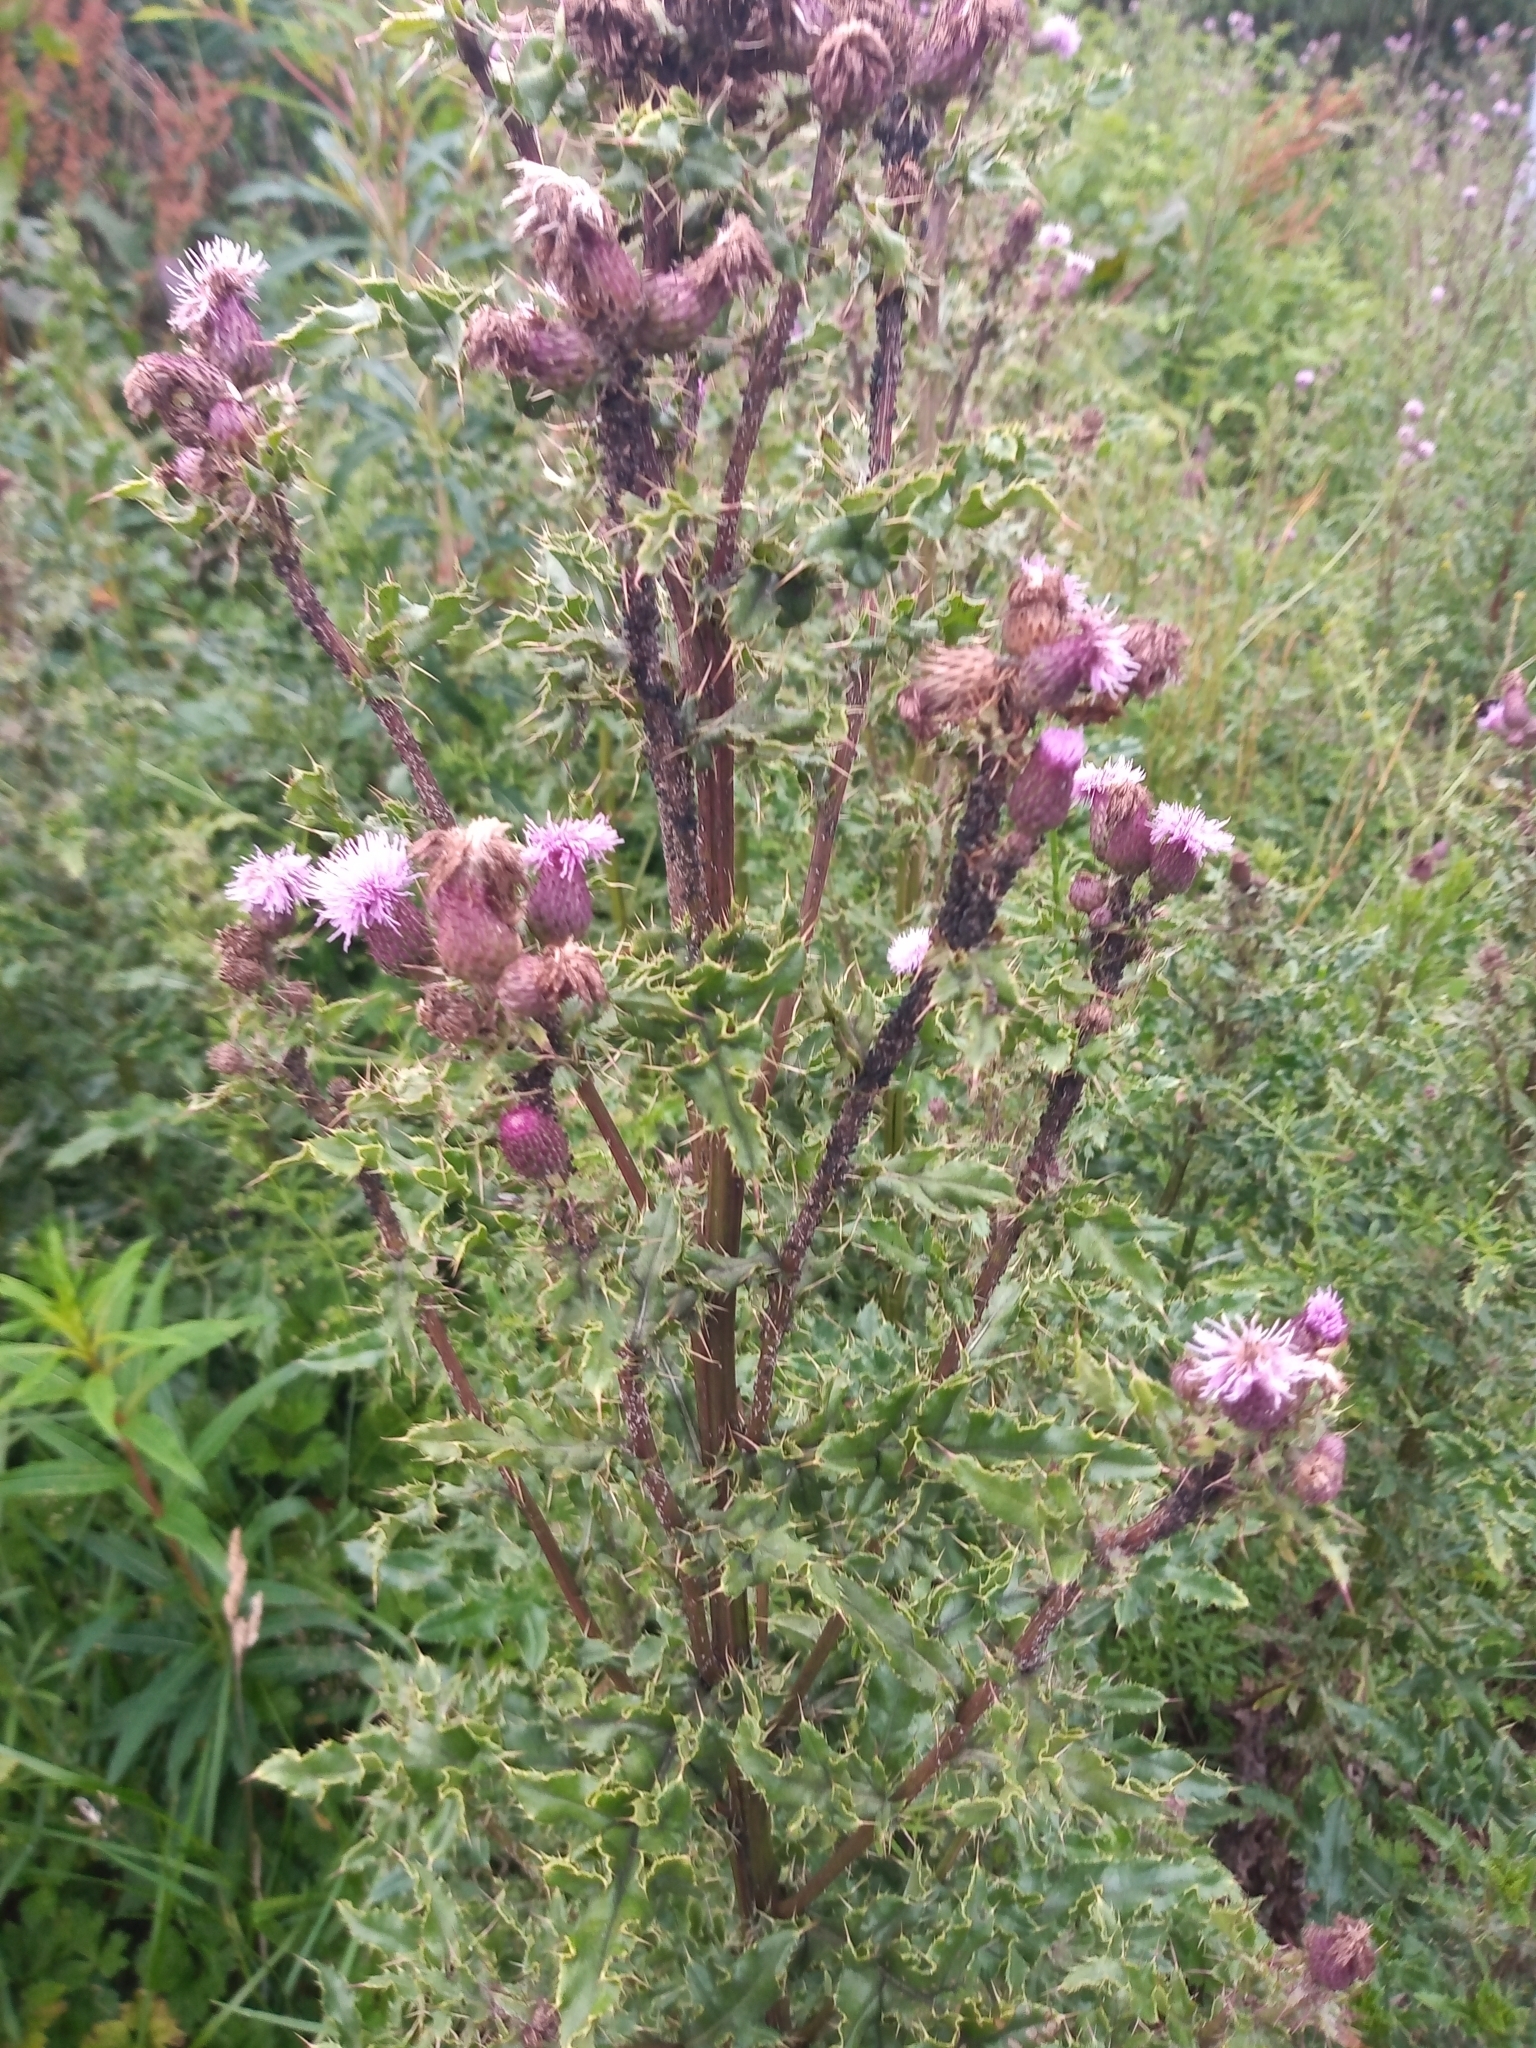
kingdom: Plantae
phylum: Tracheophyta
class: Magnoliopsida
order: Asterales
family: Asteraceae
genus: Cirsium
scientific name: Cirsium arvense
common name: Creeping thistle
